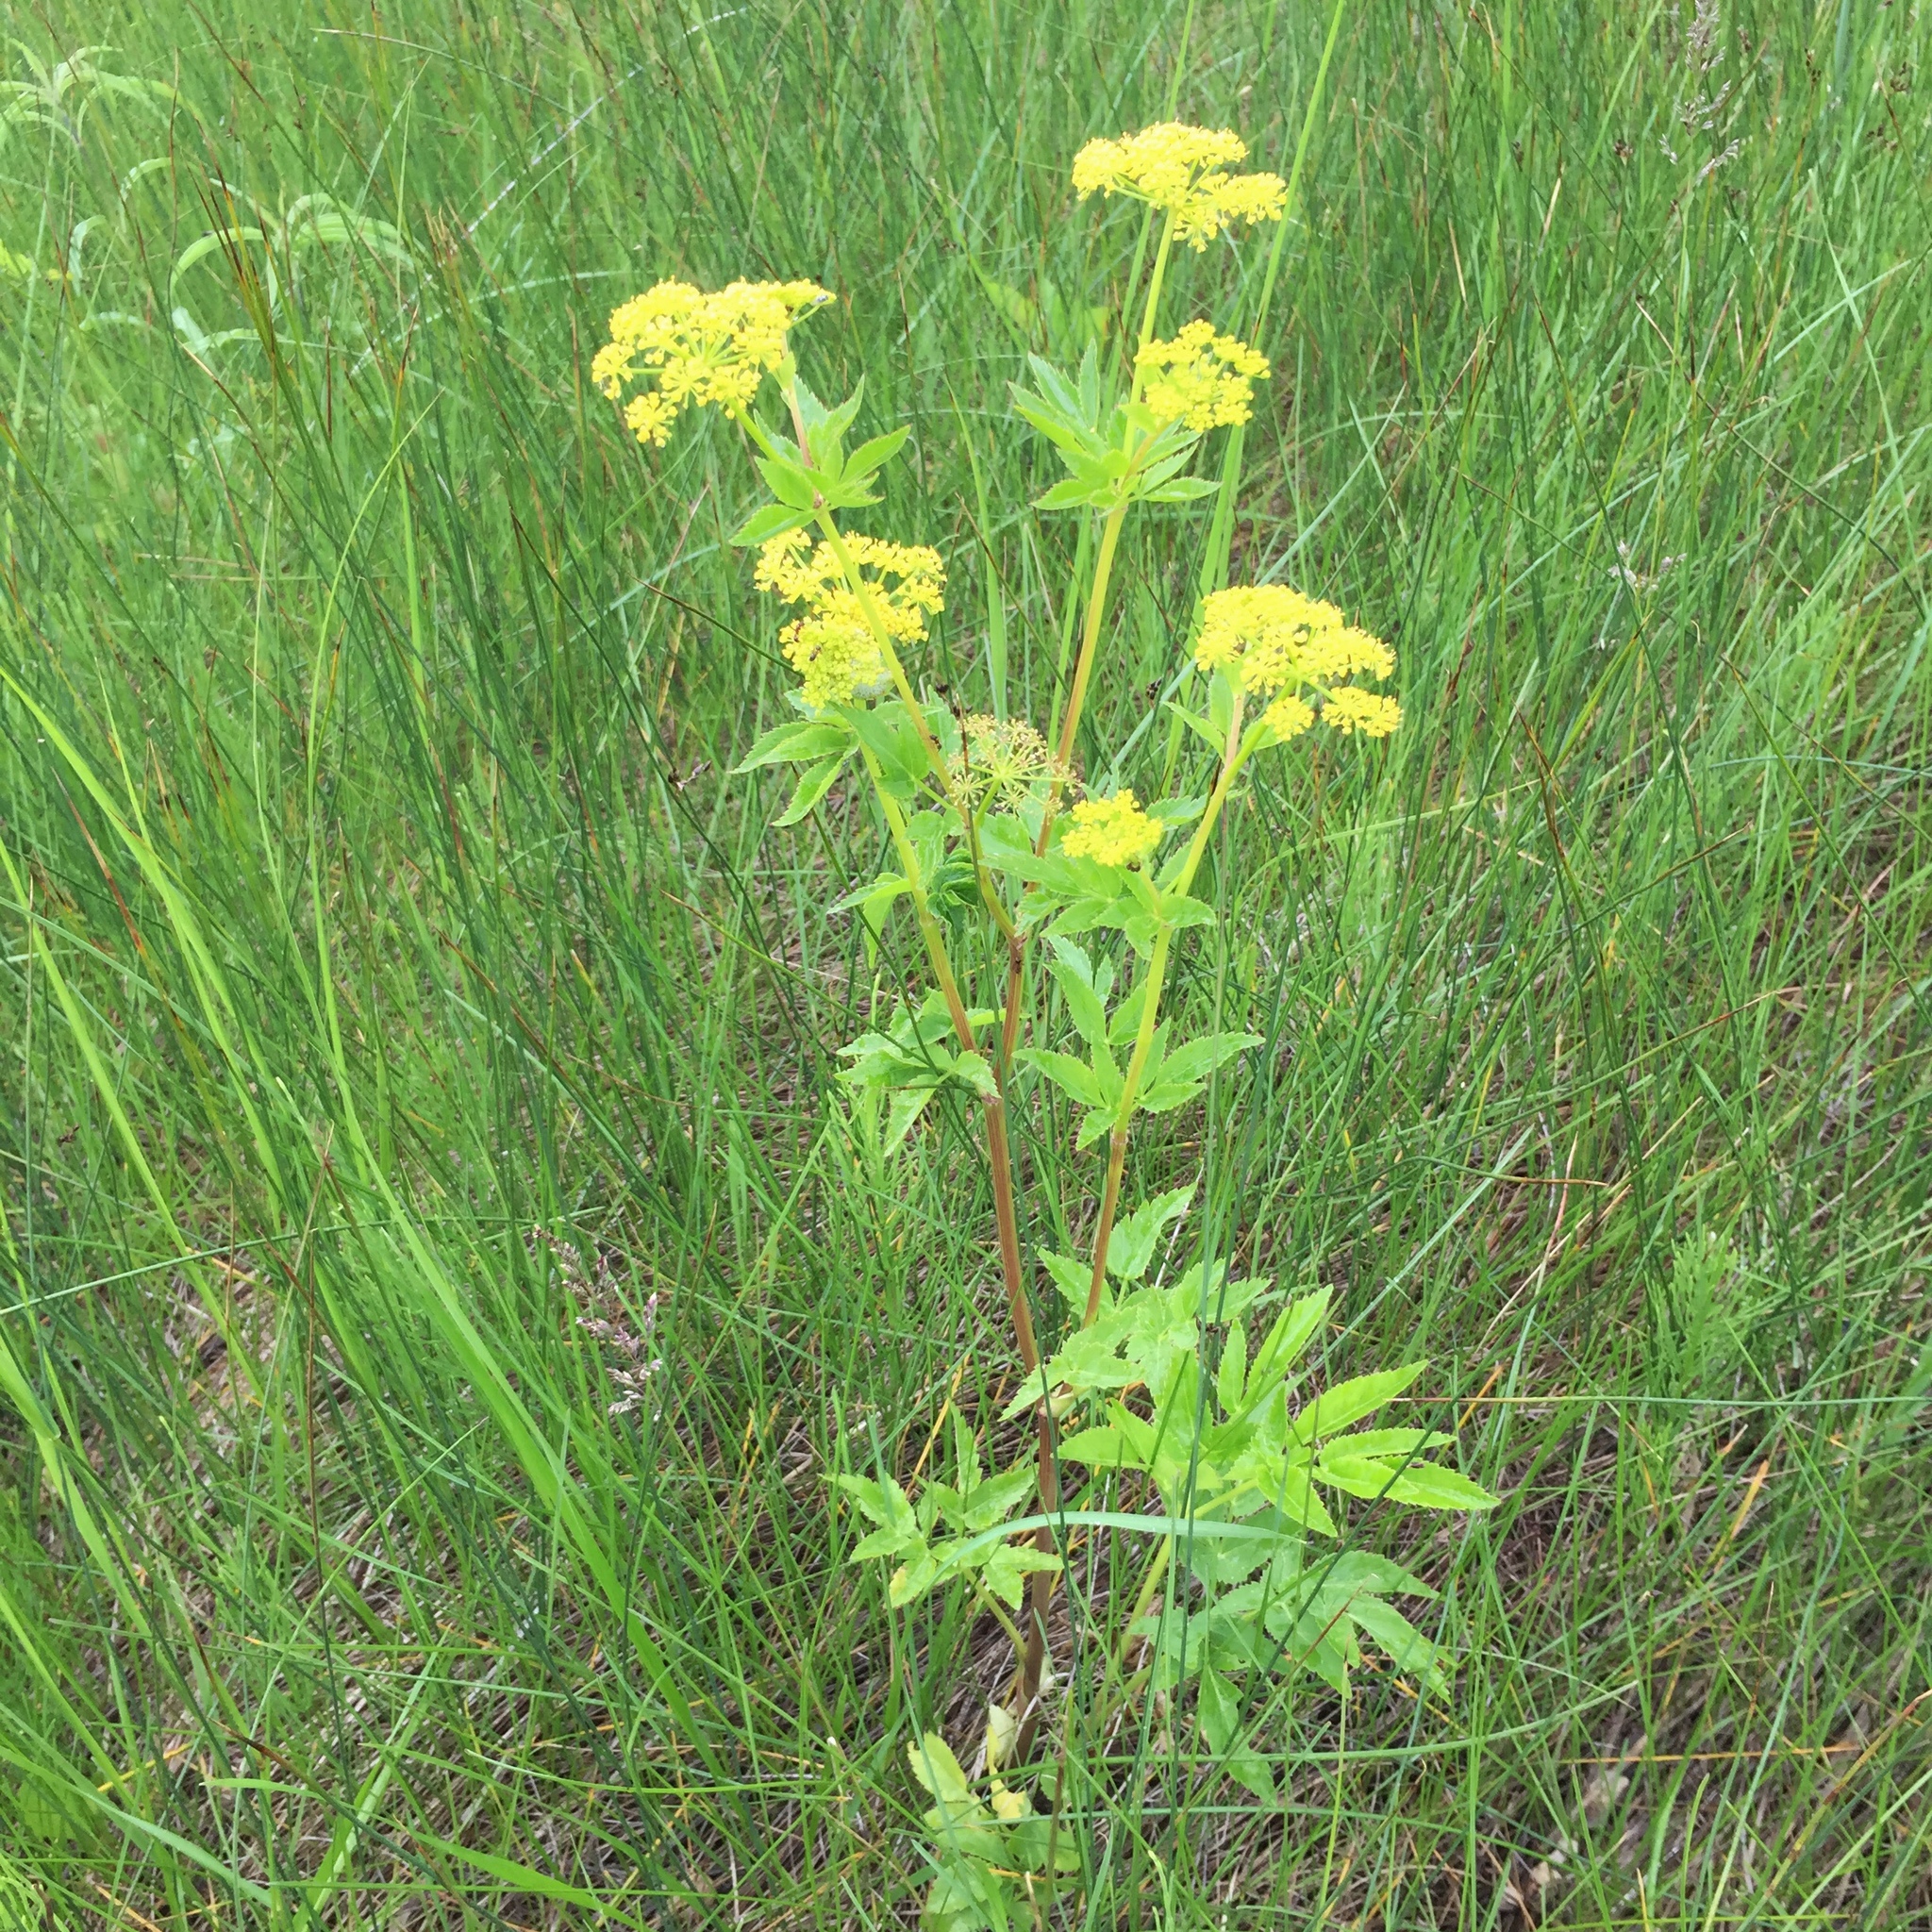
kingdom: Plantae
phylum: Tracheophyta
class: Magnoliopsida
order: Apiales
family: Apiaceae
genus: Zizia
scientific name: Zizia aurea
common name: Golden alexanders
